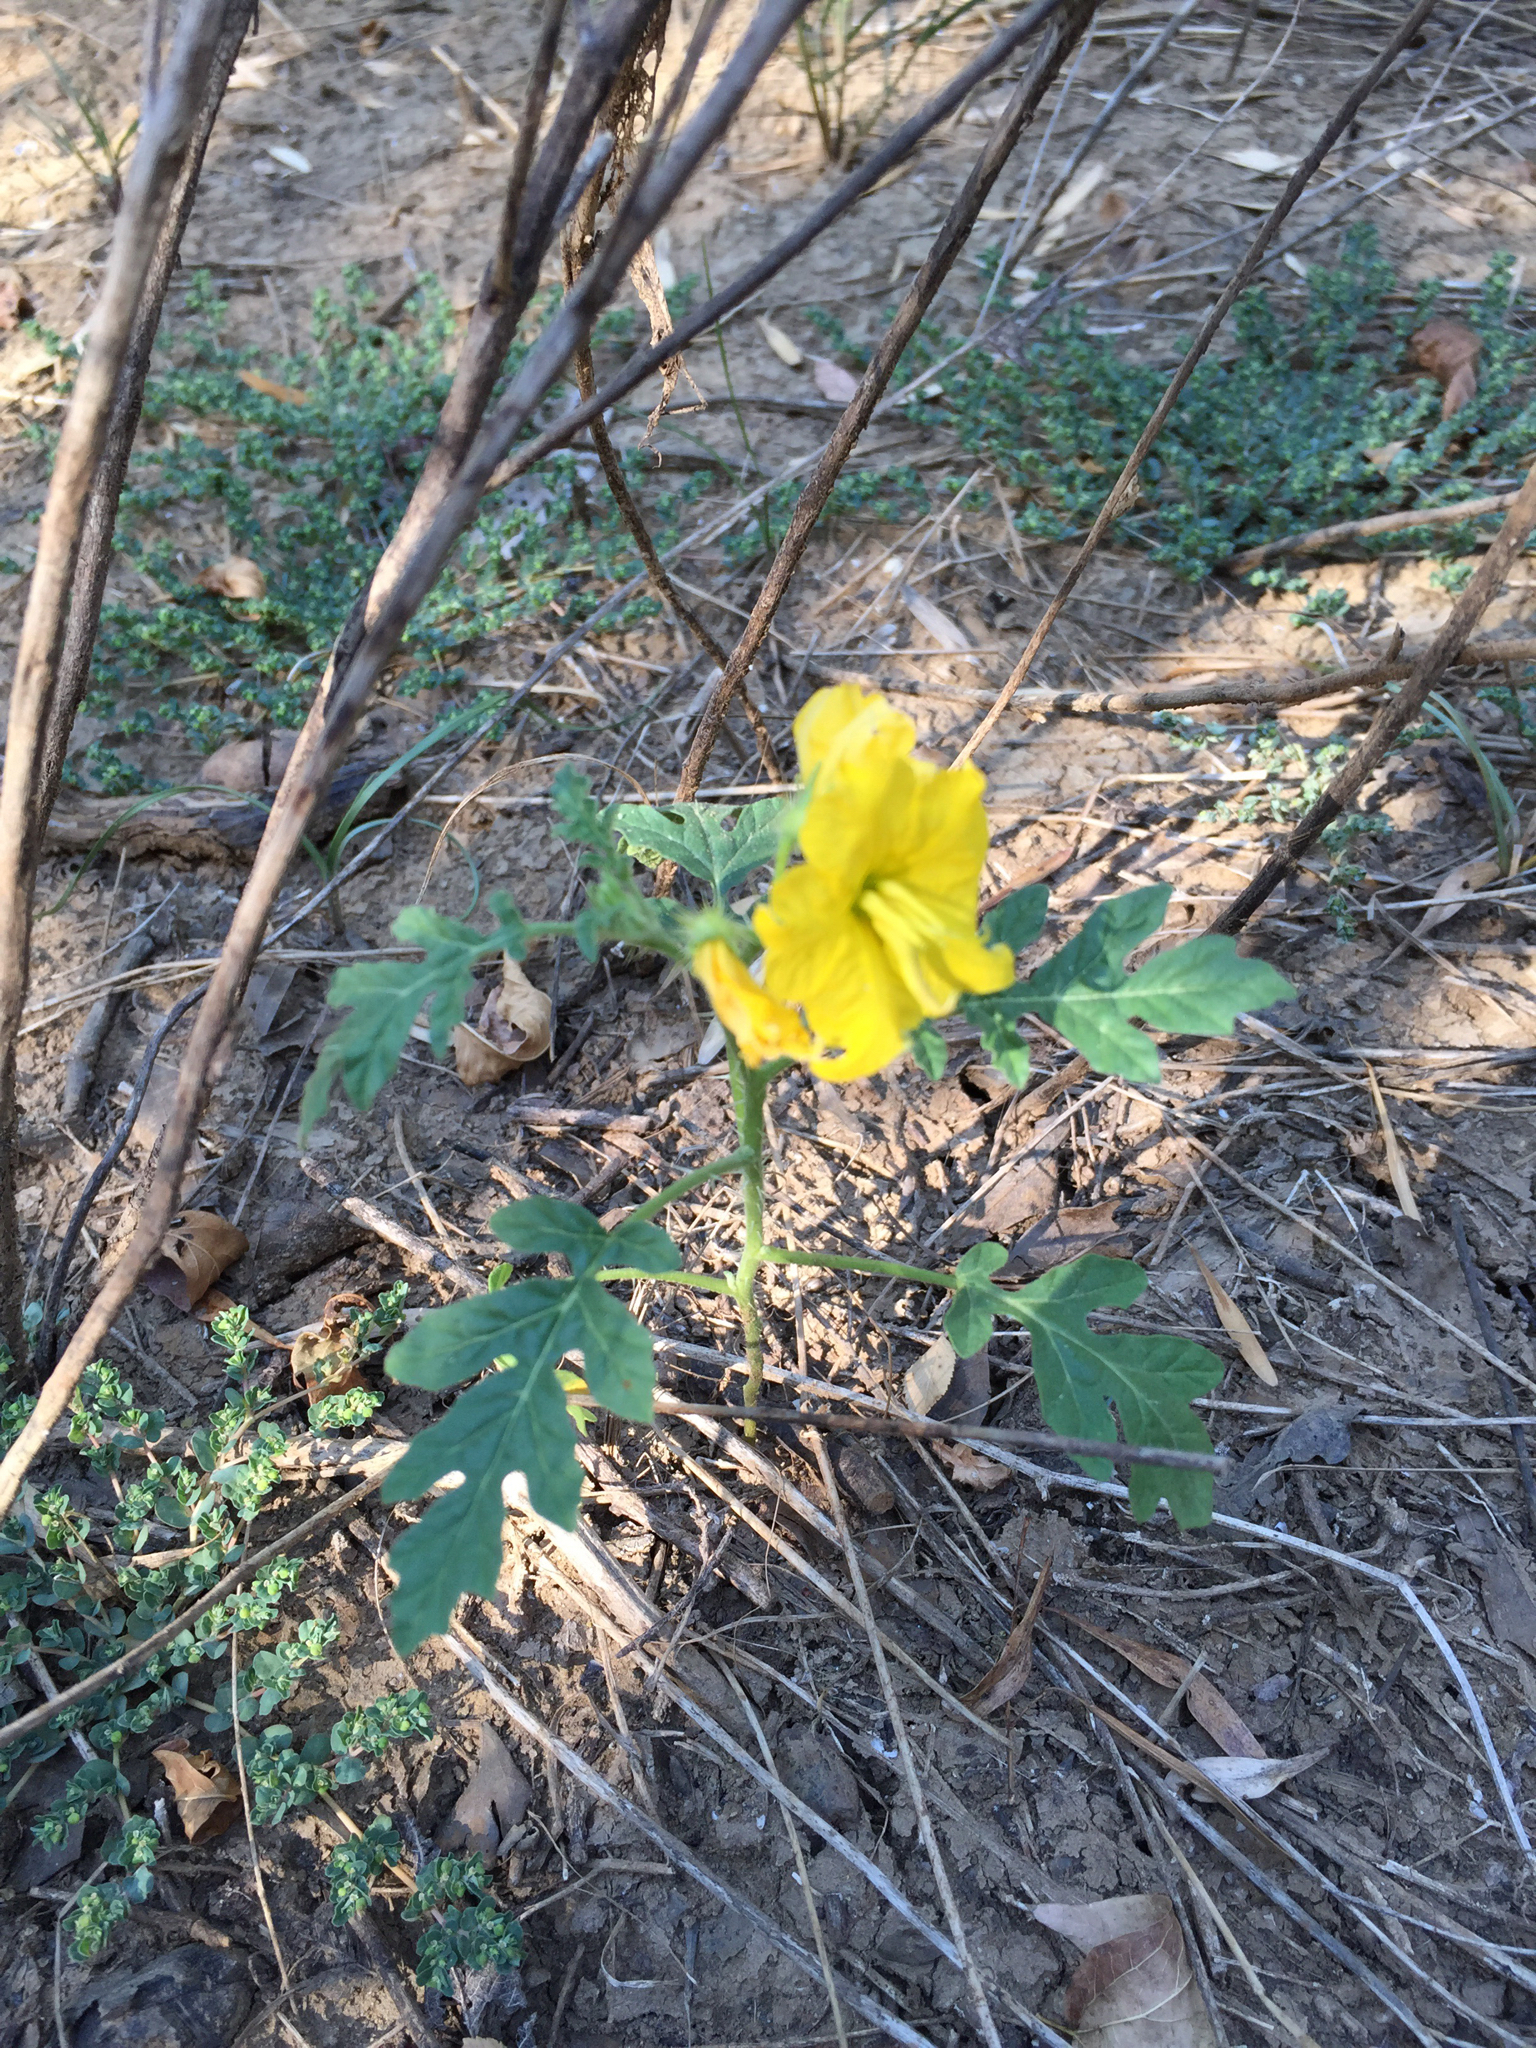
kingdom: Plantae
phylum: Tracheophyta
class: Magnoliopsida
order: Solanales
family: Solanaceae
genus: Solanum
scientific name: Solanum angustifolium
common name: Buffalobur nightshade
